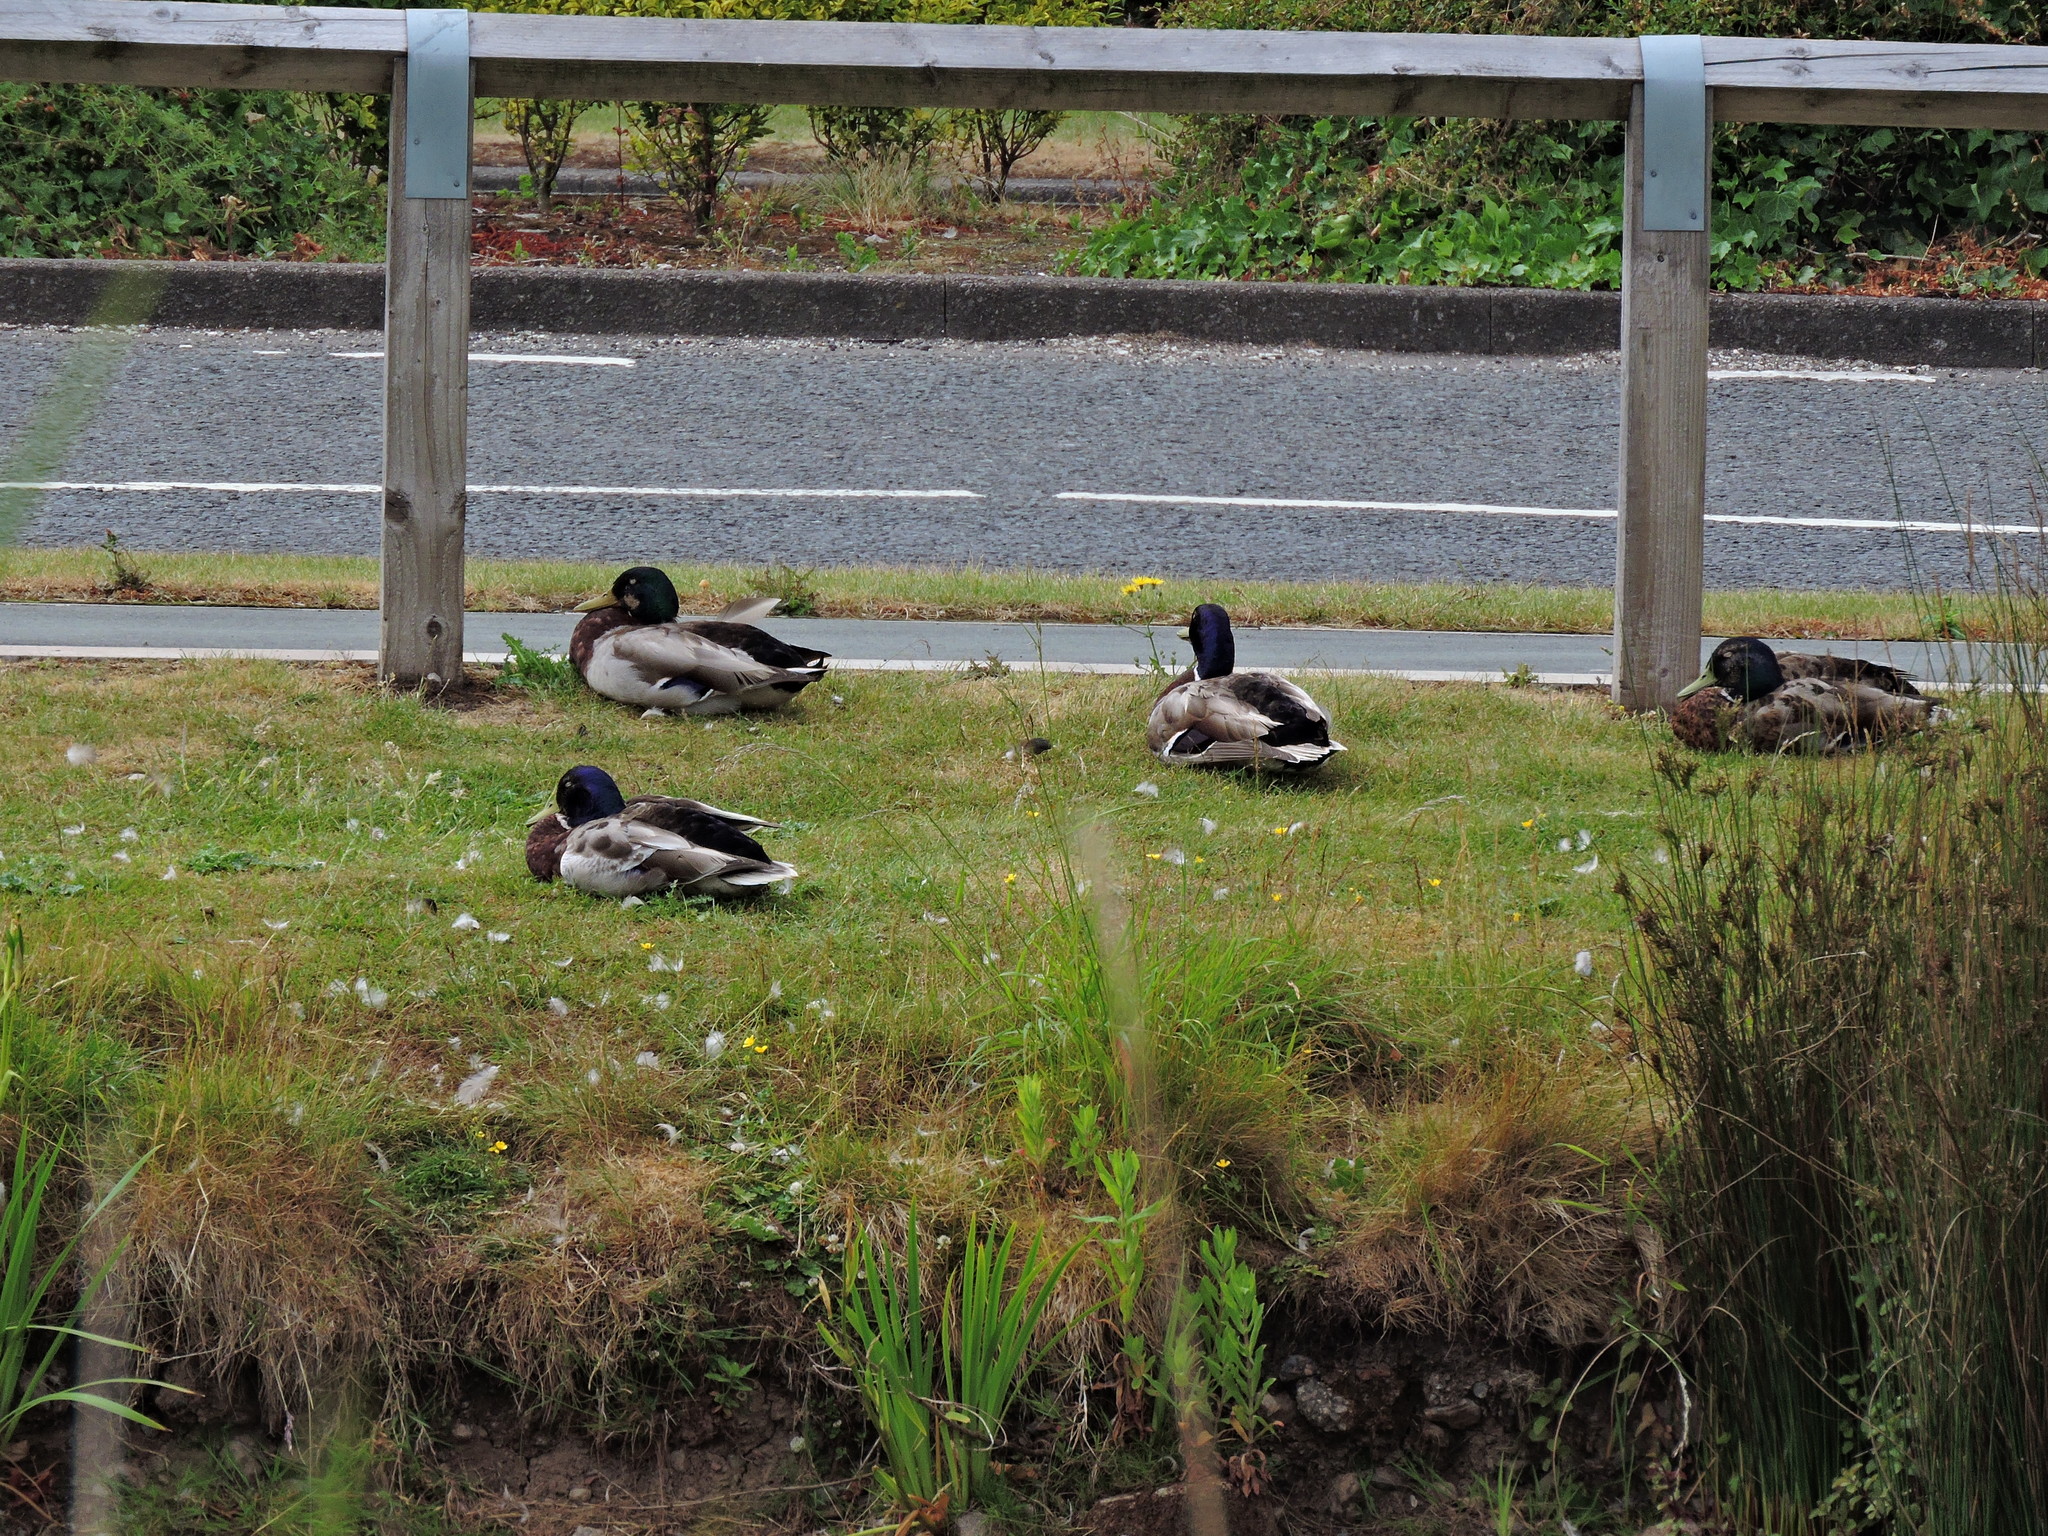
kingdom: Animalia
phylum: Chordata
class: Aves
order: Anseriformes
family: Anatidae
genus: Anas
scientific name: Anas platyrhynchos
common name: Mallard
